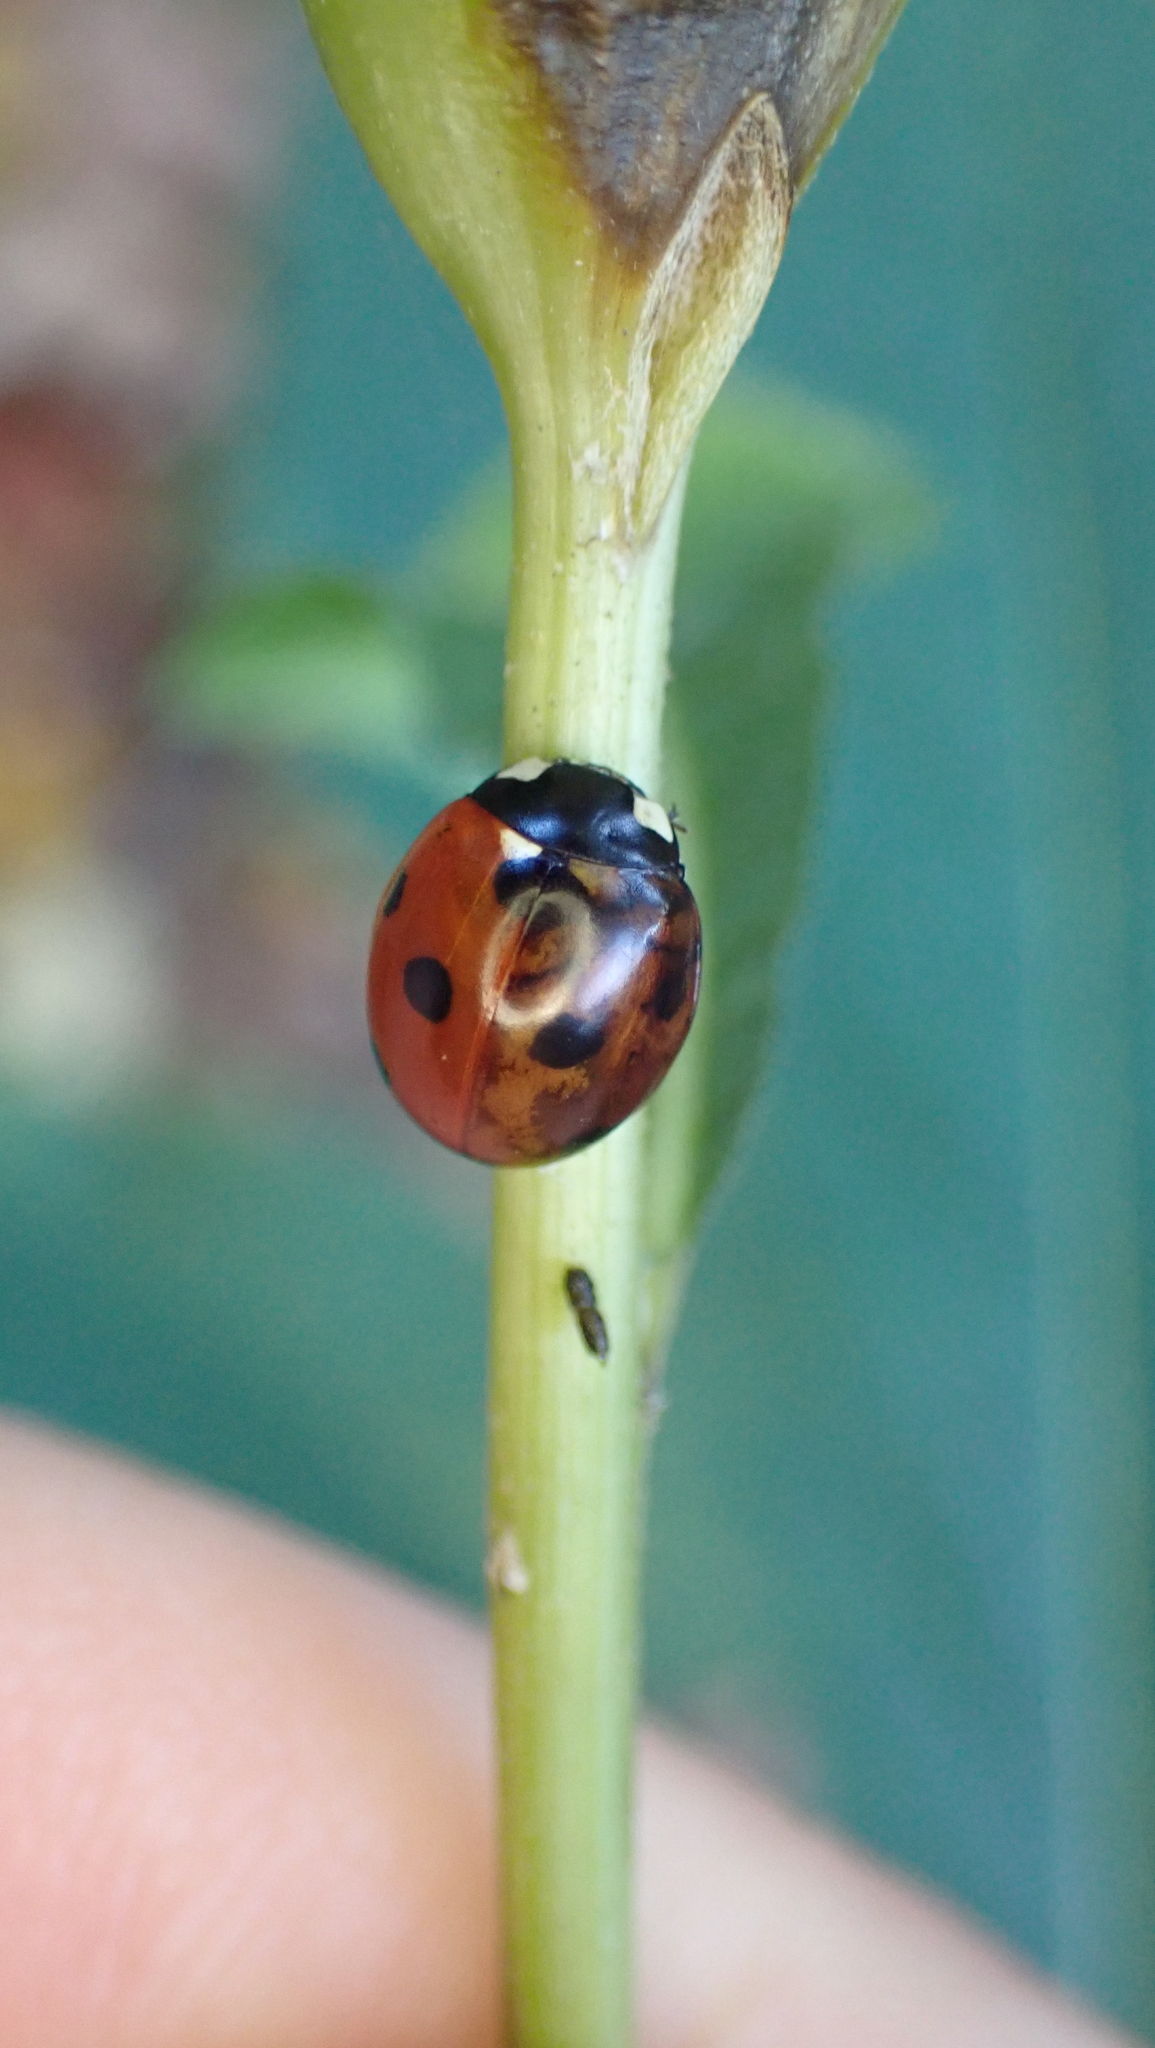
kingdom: Animalia
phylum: Arthropoda
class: Insecta
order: Coleoptera
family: Coccinellidae
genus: Coccinella
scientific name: Coccinella septempunctata
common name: Sevenspotted lady beetle
